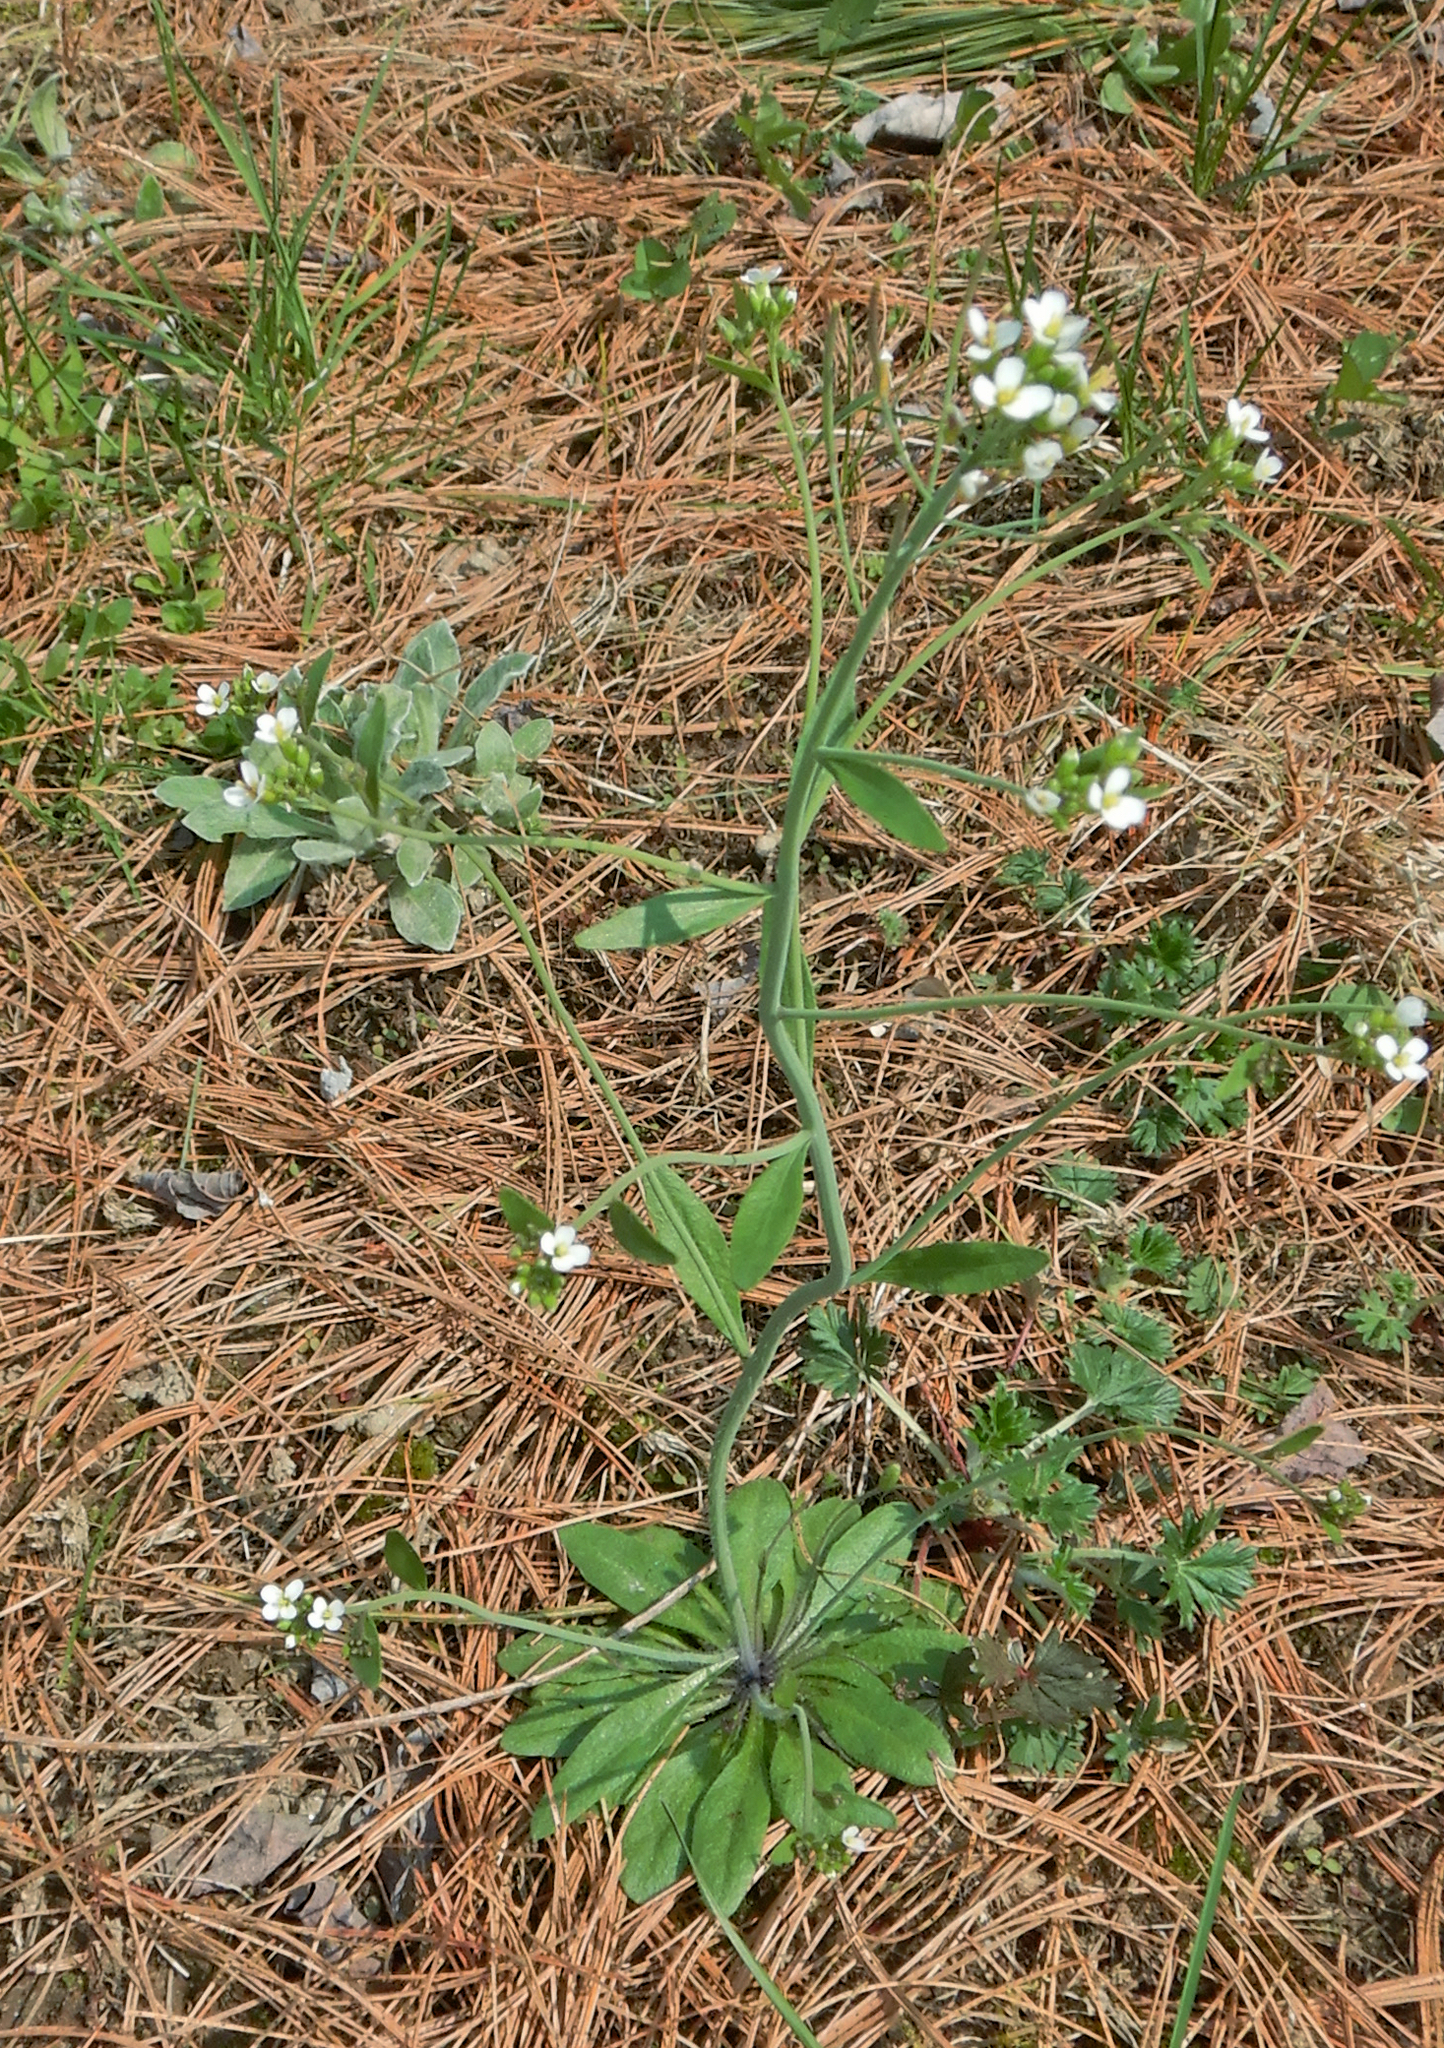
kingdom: Plantae
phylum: Tracheophyta
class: Magnoliopsida
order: Brassicales
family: Brassicaceae
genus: Arabidopsis
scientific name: Arabidopsis thaliana
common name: Thale cress
